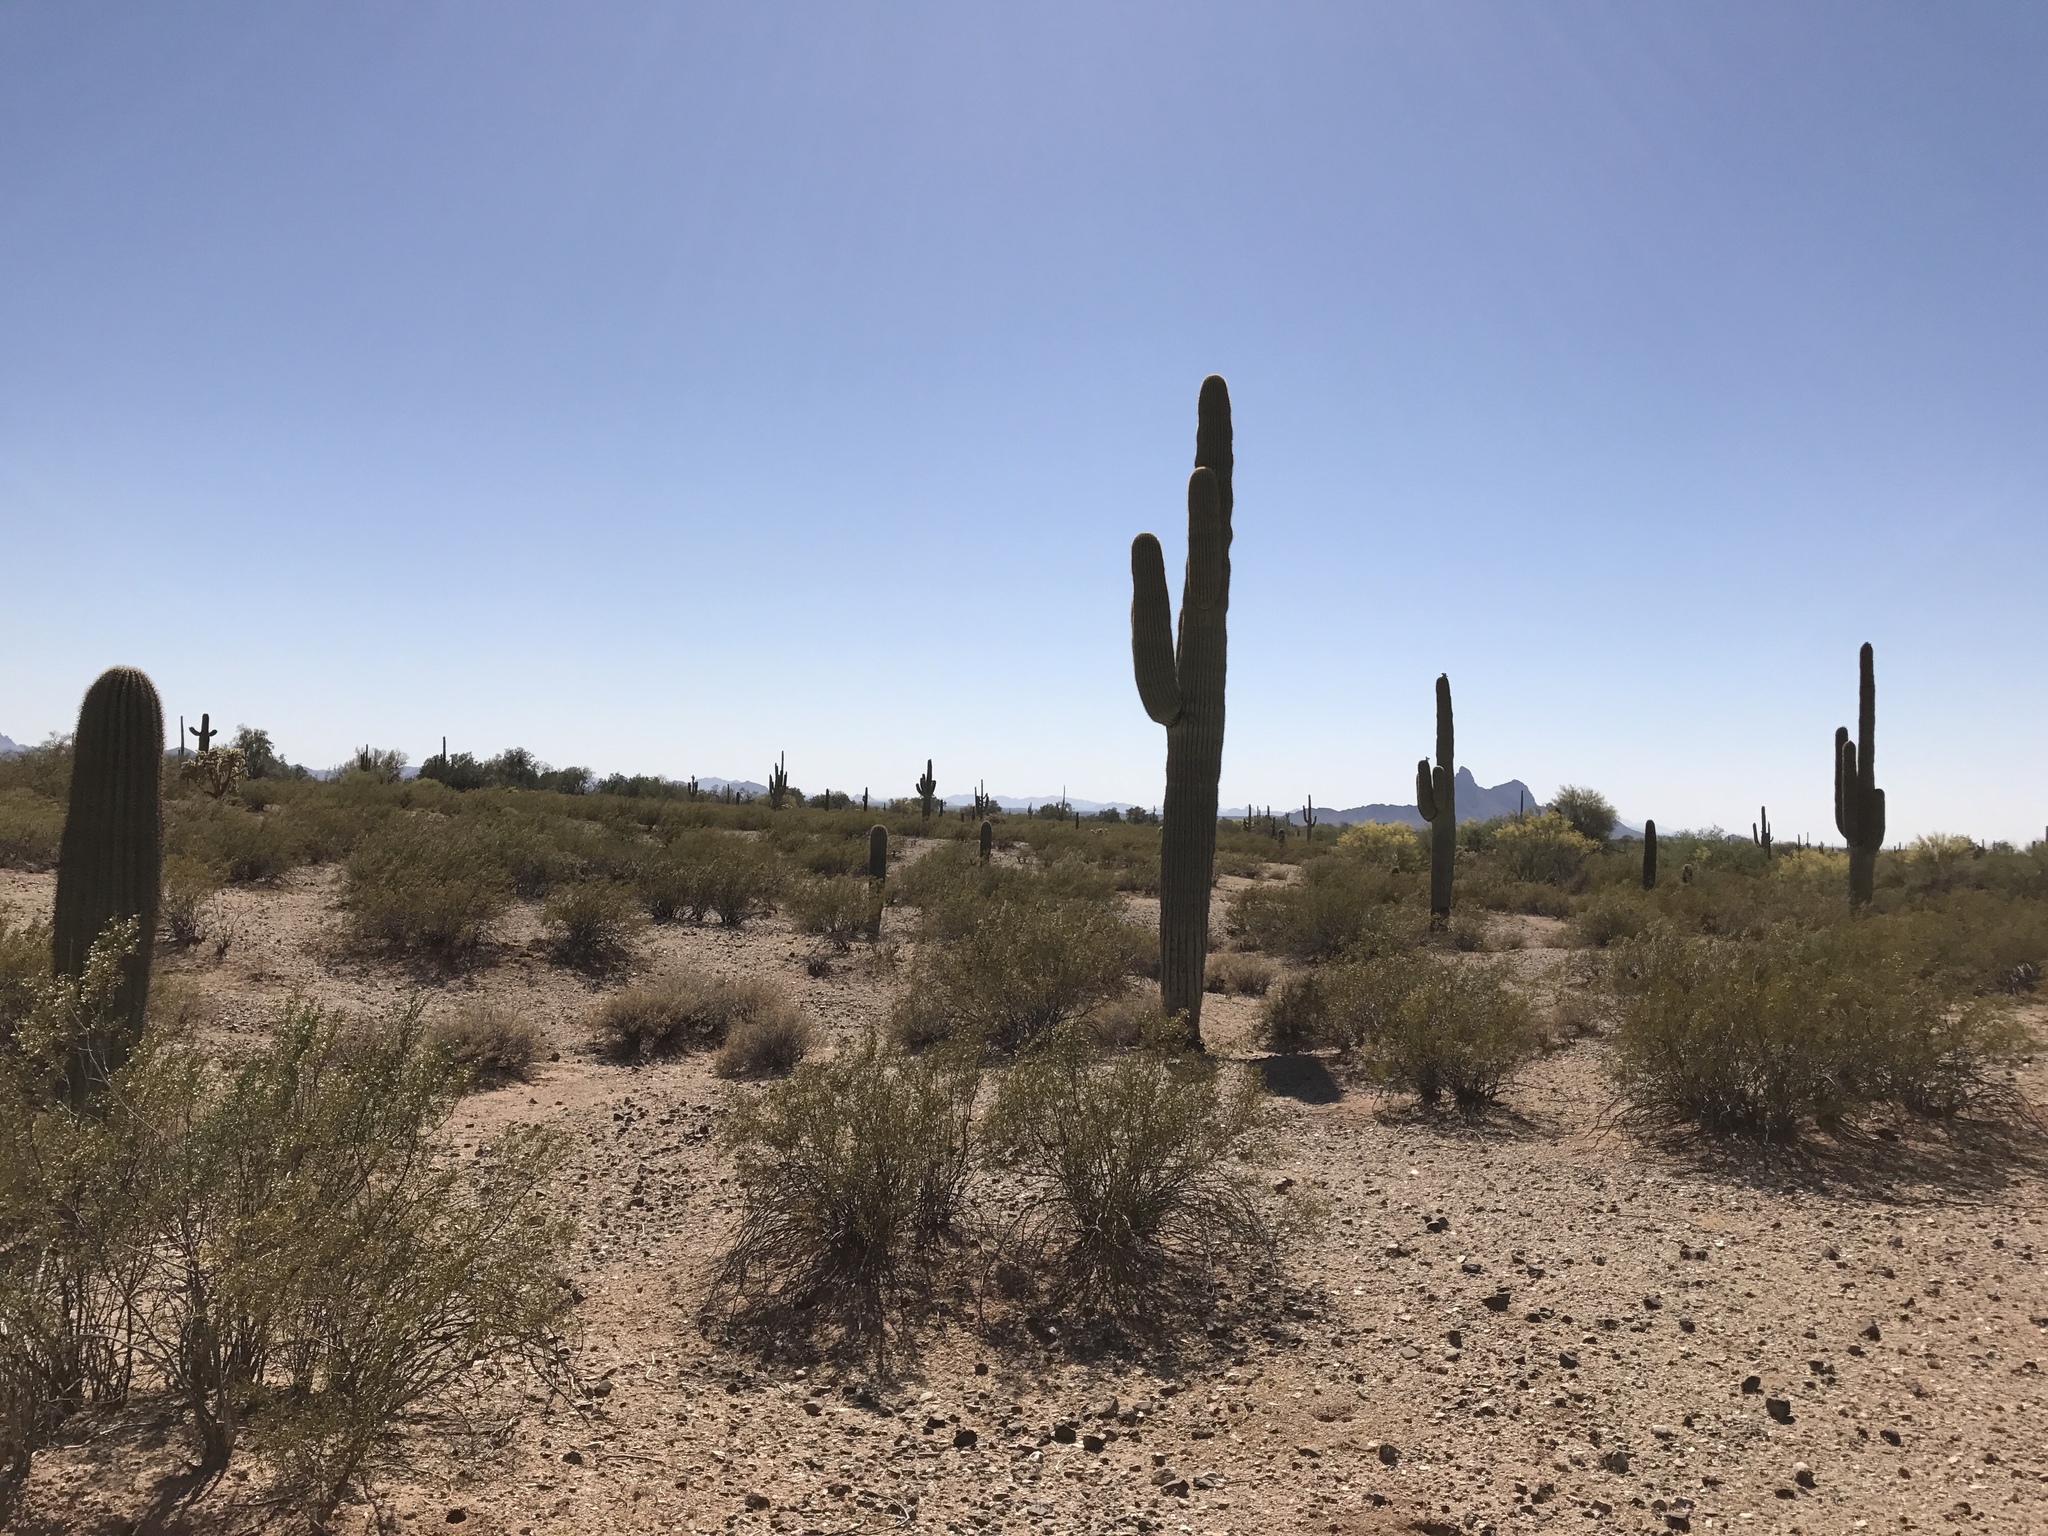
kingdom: Plantae
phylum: Tracheophyta
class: Magnoliopsida
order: Caryophyllales
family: Cactaceae
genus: Carnegiea
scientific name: Carnegiea gigantea
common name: Saguaro
